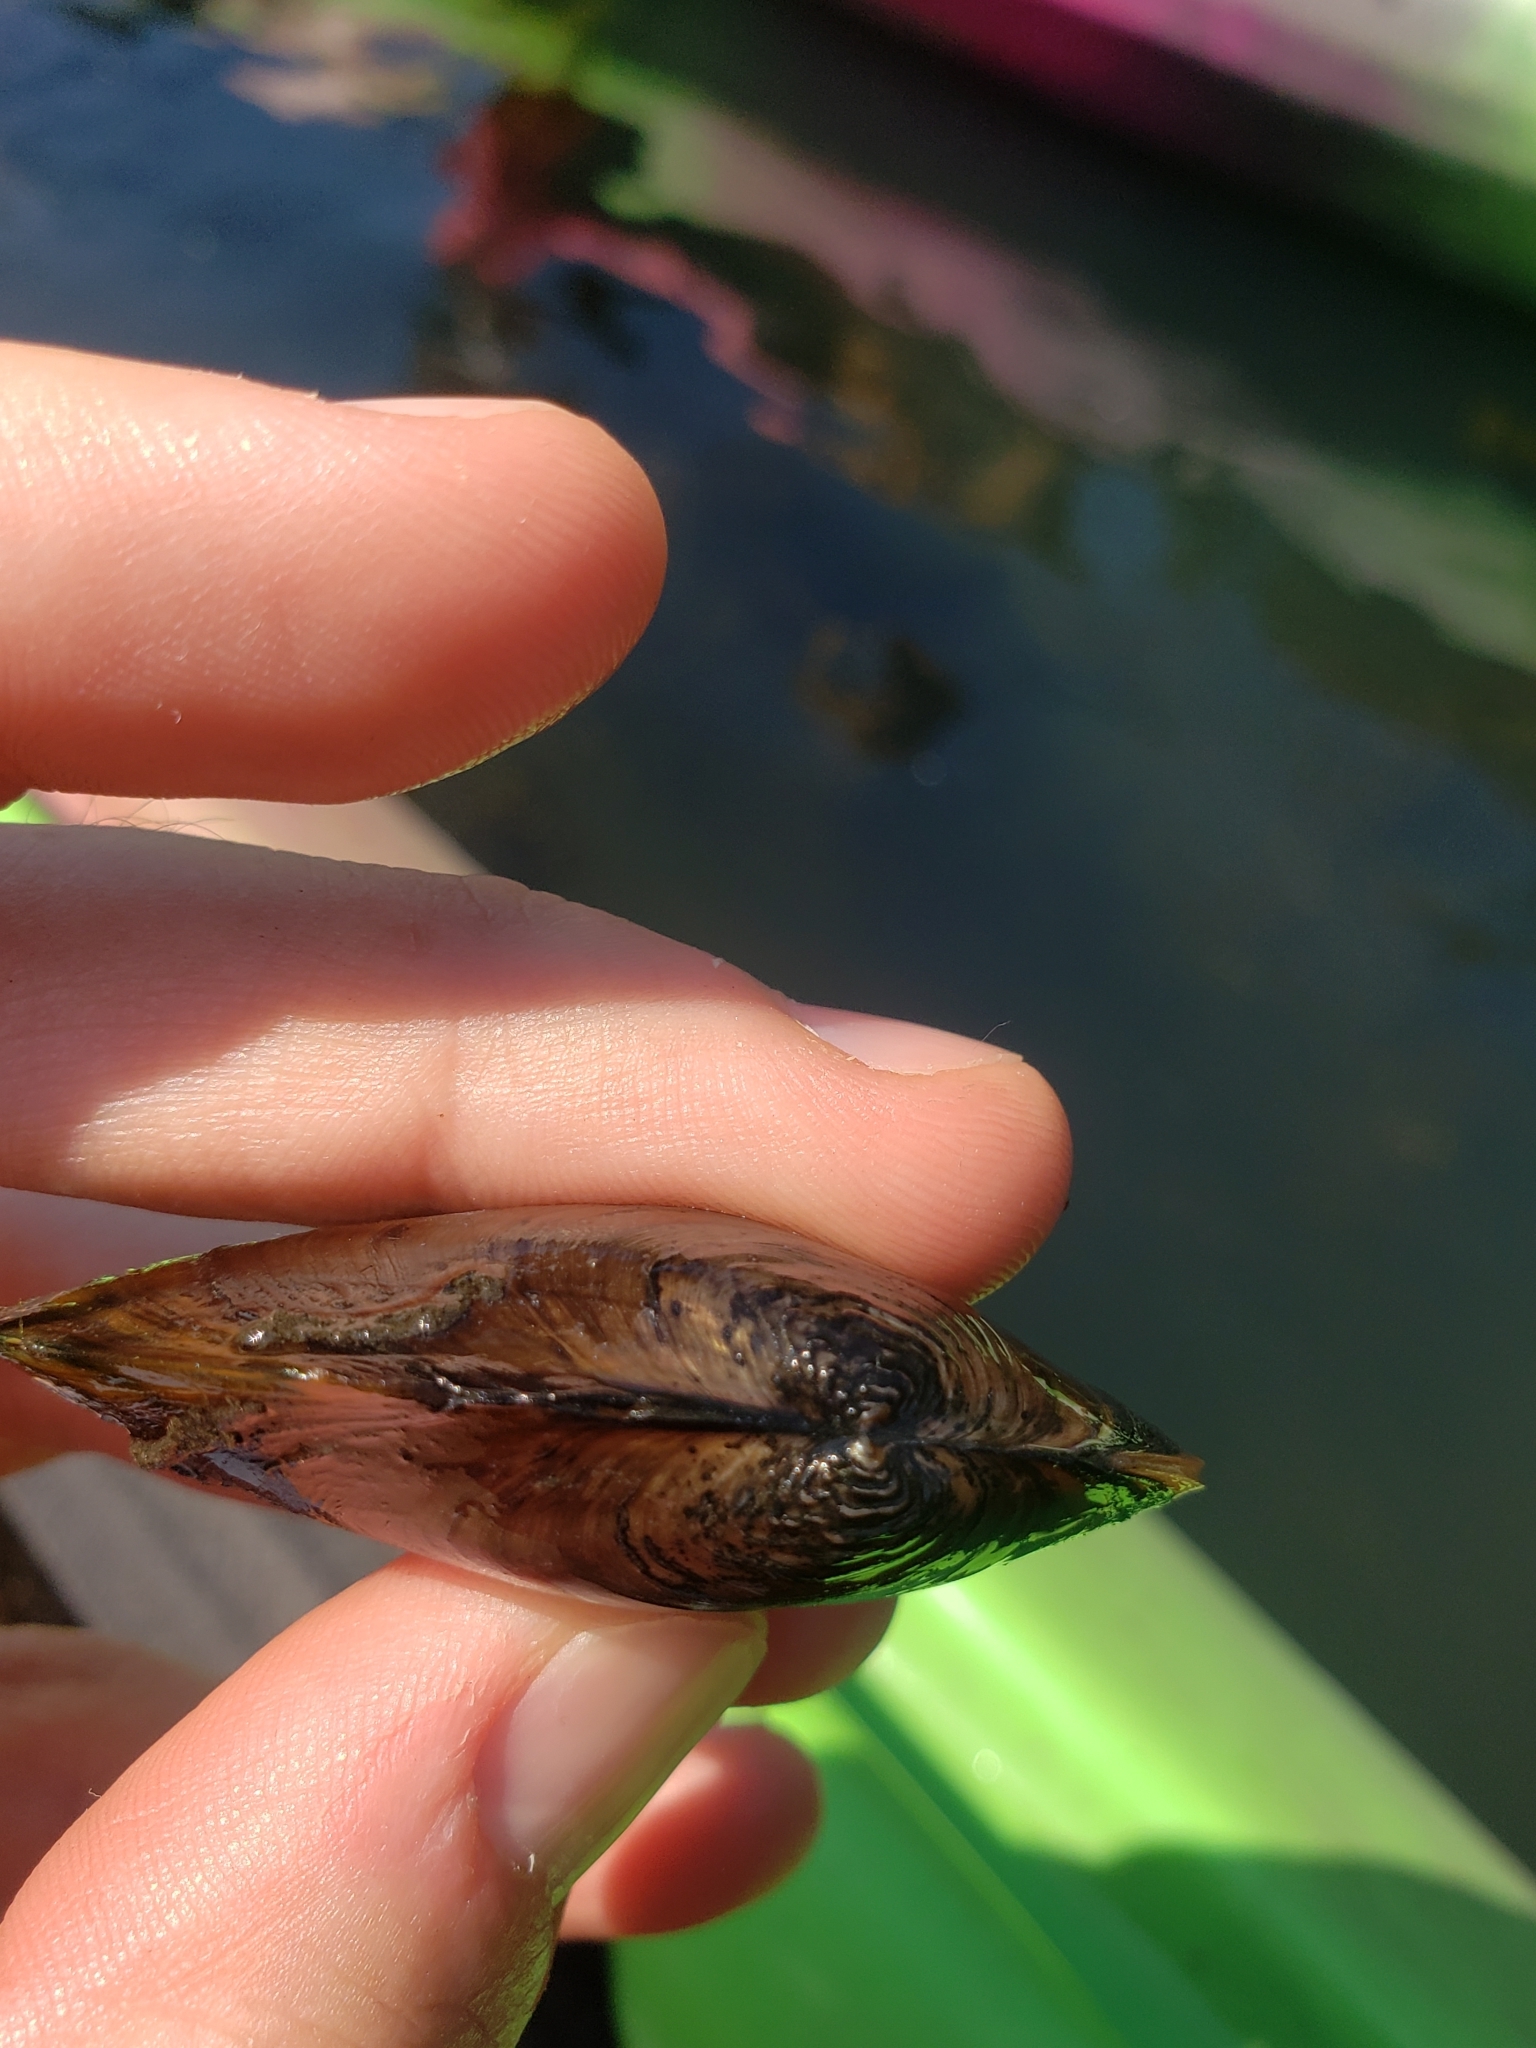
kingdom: Animalia
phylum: Mollusca
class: Bivalvia
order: Unionida
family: Unionidae
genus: Pyganodon
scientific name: Pyganodon cataracta
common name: Eastern floater
